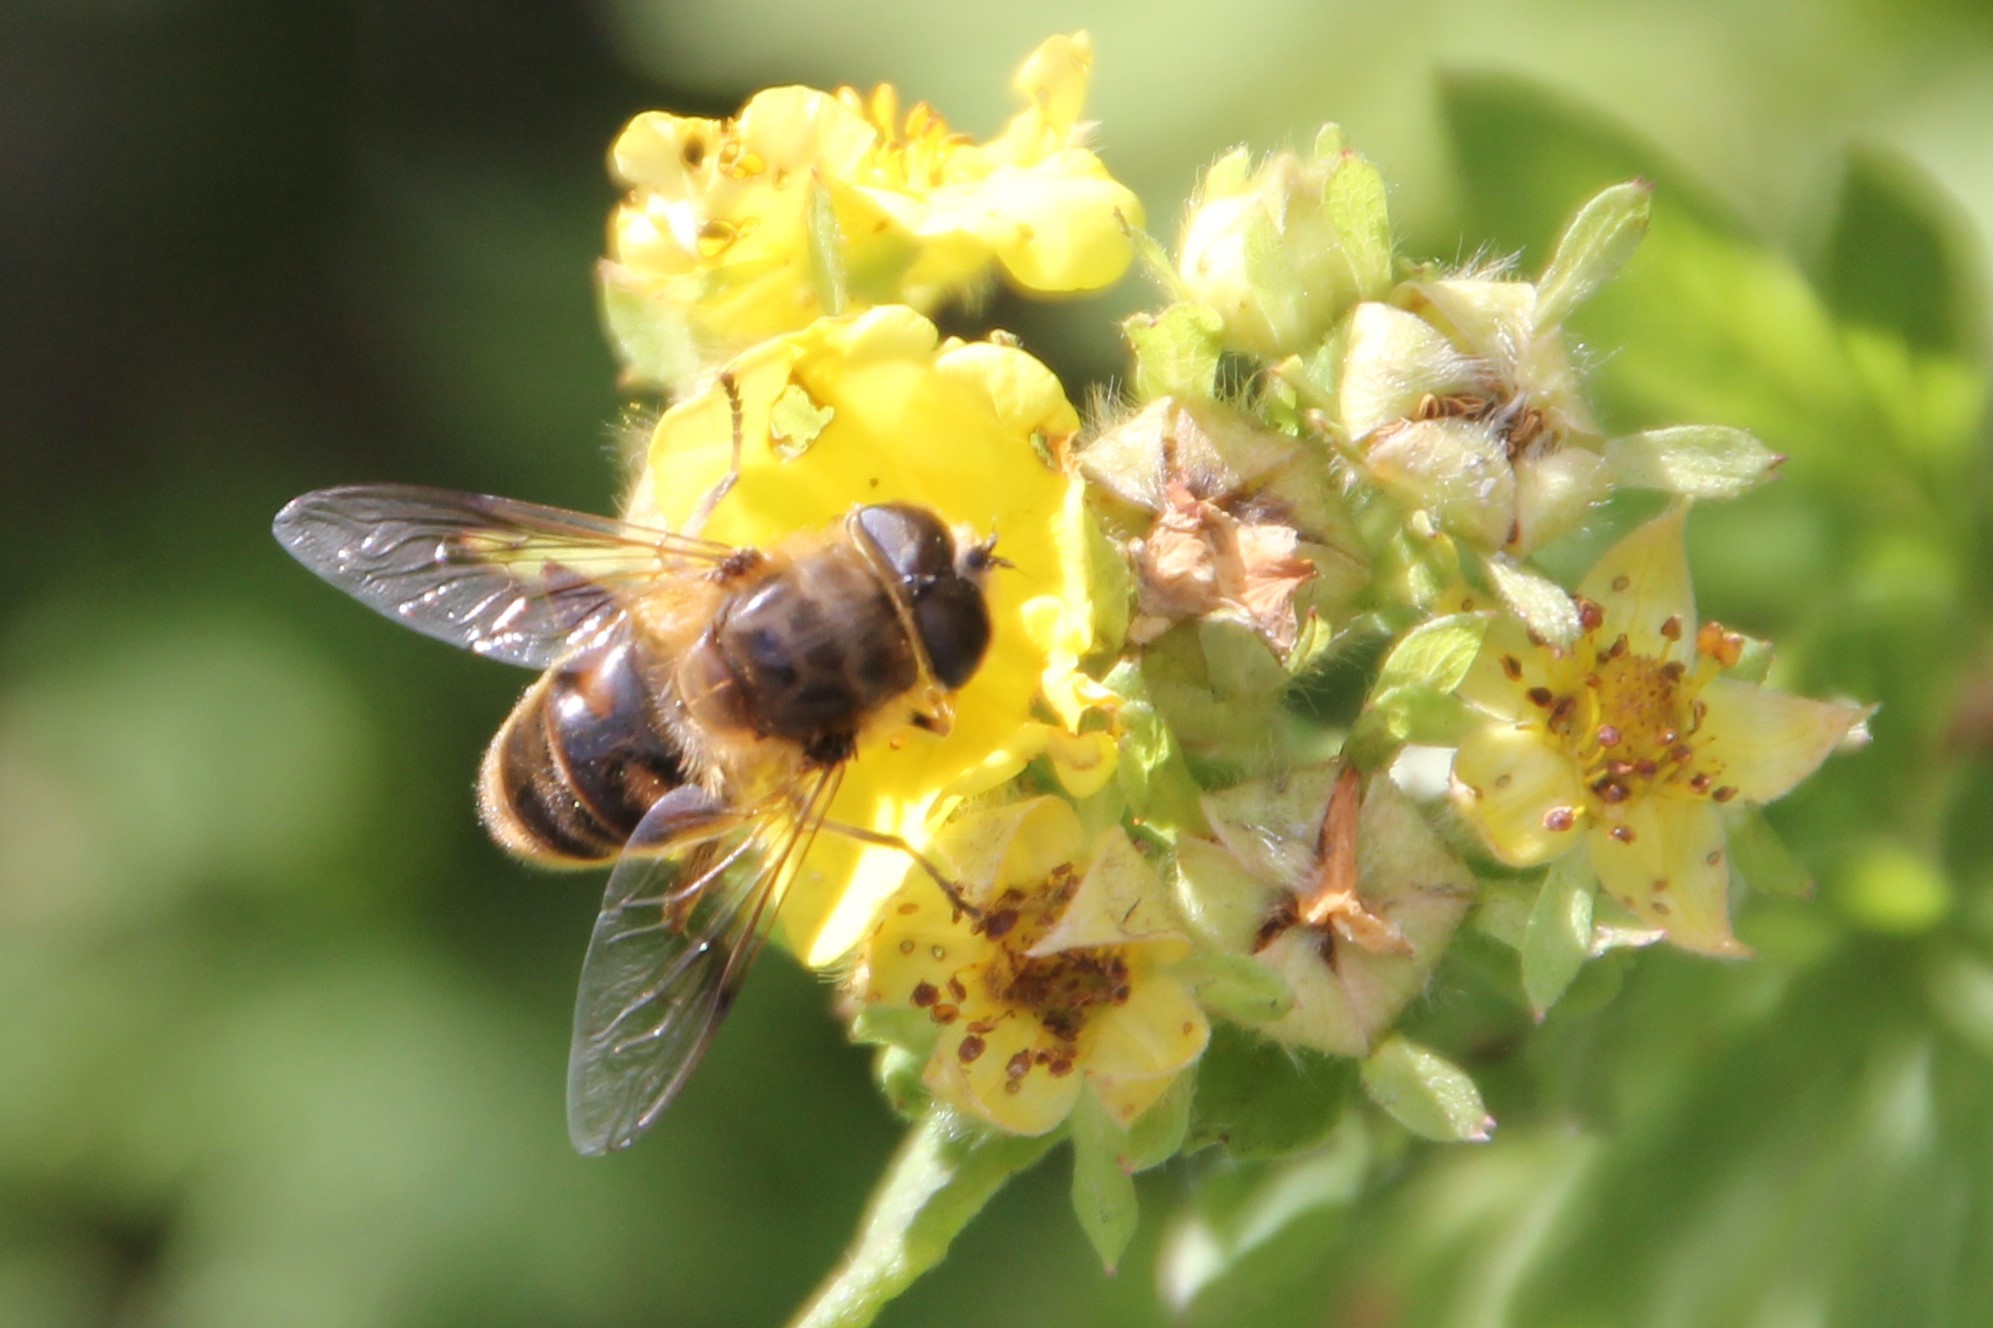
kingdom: Animalia
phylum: Arthropoda
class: Insecta
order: Diptera
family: Syrphidae
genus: Eristalis
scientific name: Eristalis tenax
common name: Drone fly
